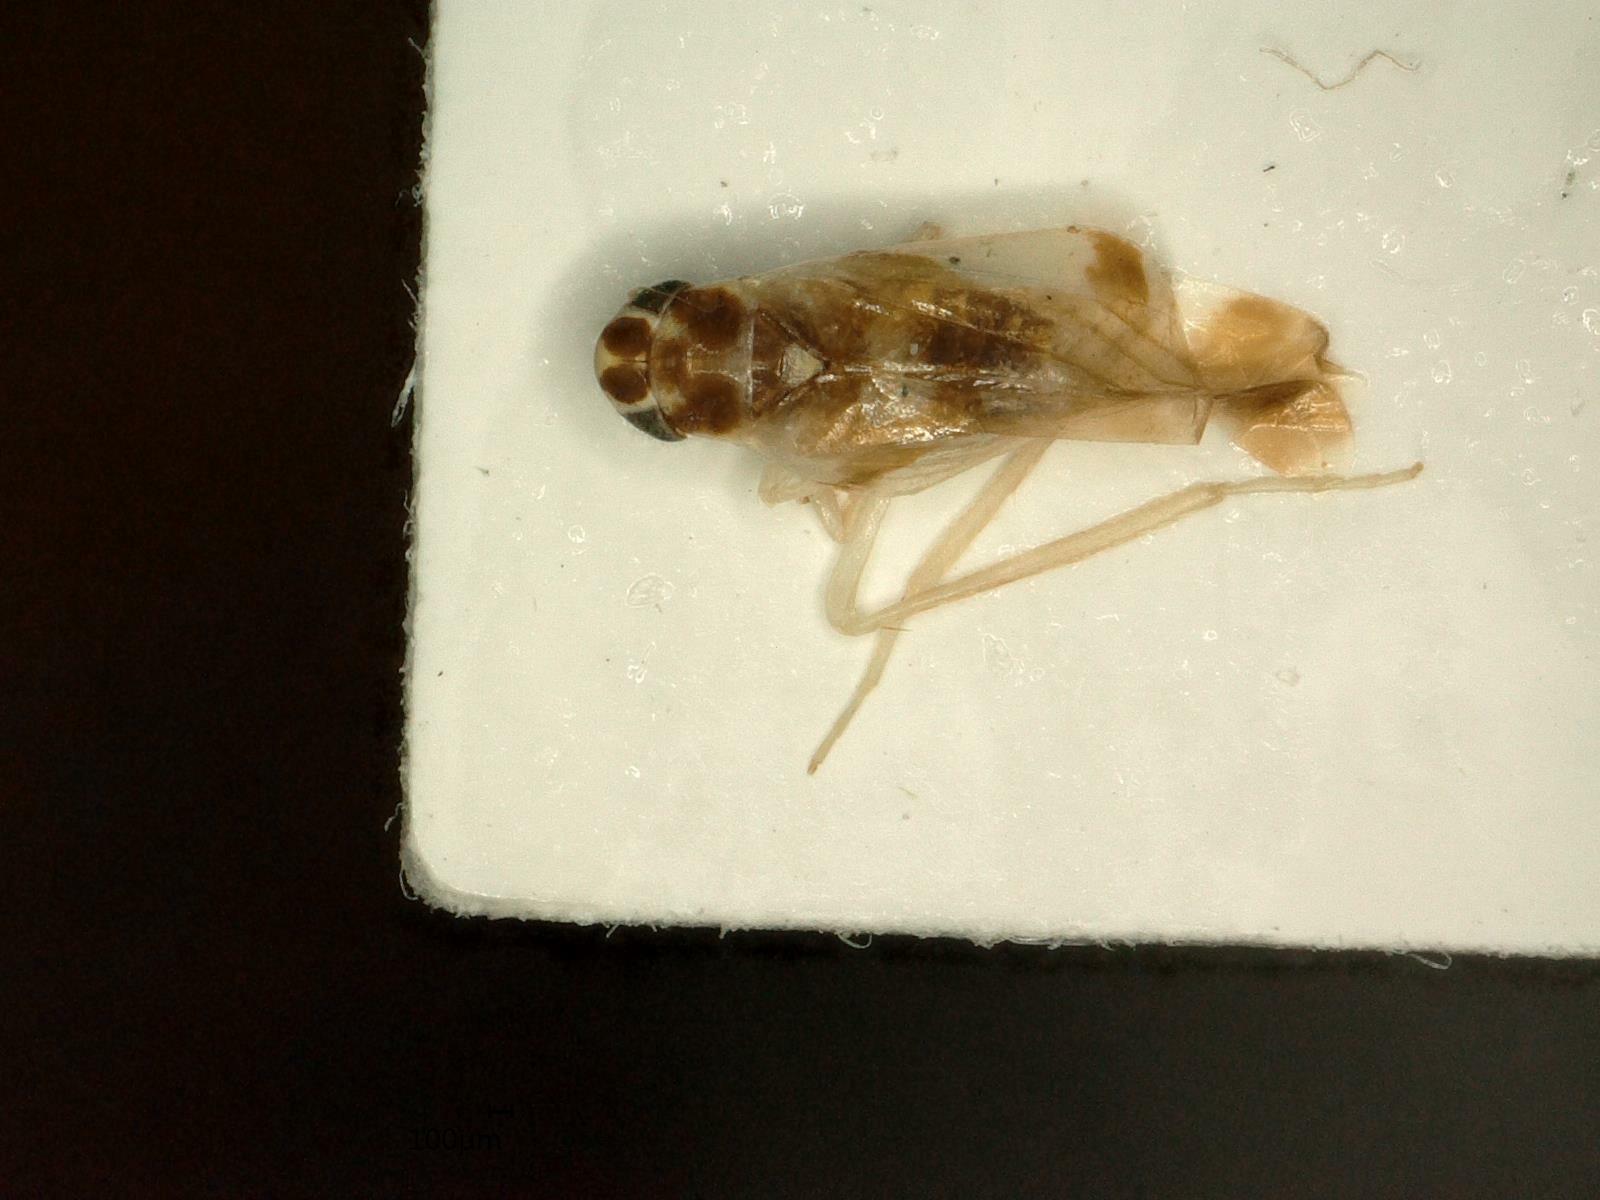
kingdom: Animalia
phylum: Arthropoda
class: Insecta
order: Hemiptera
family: Cicadellidae
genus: Eupteryx
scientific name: Eupteryx aurata
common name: Leafhopper
